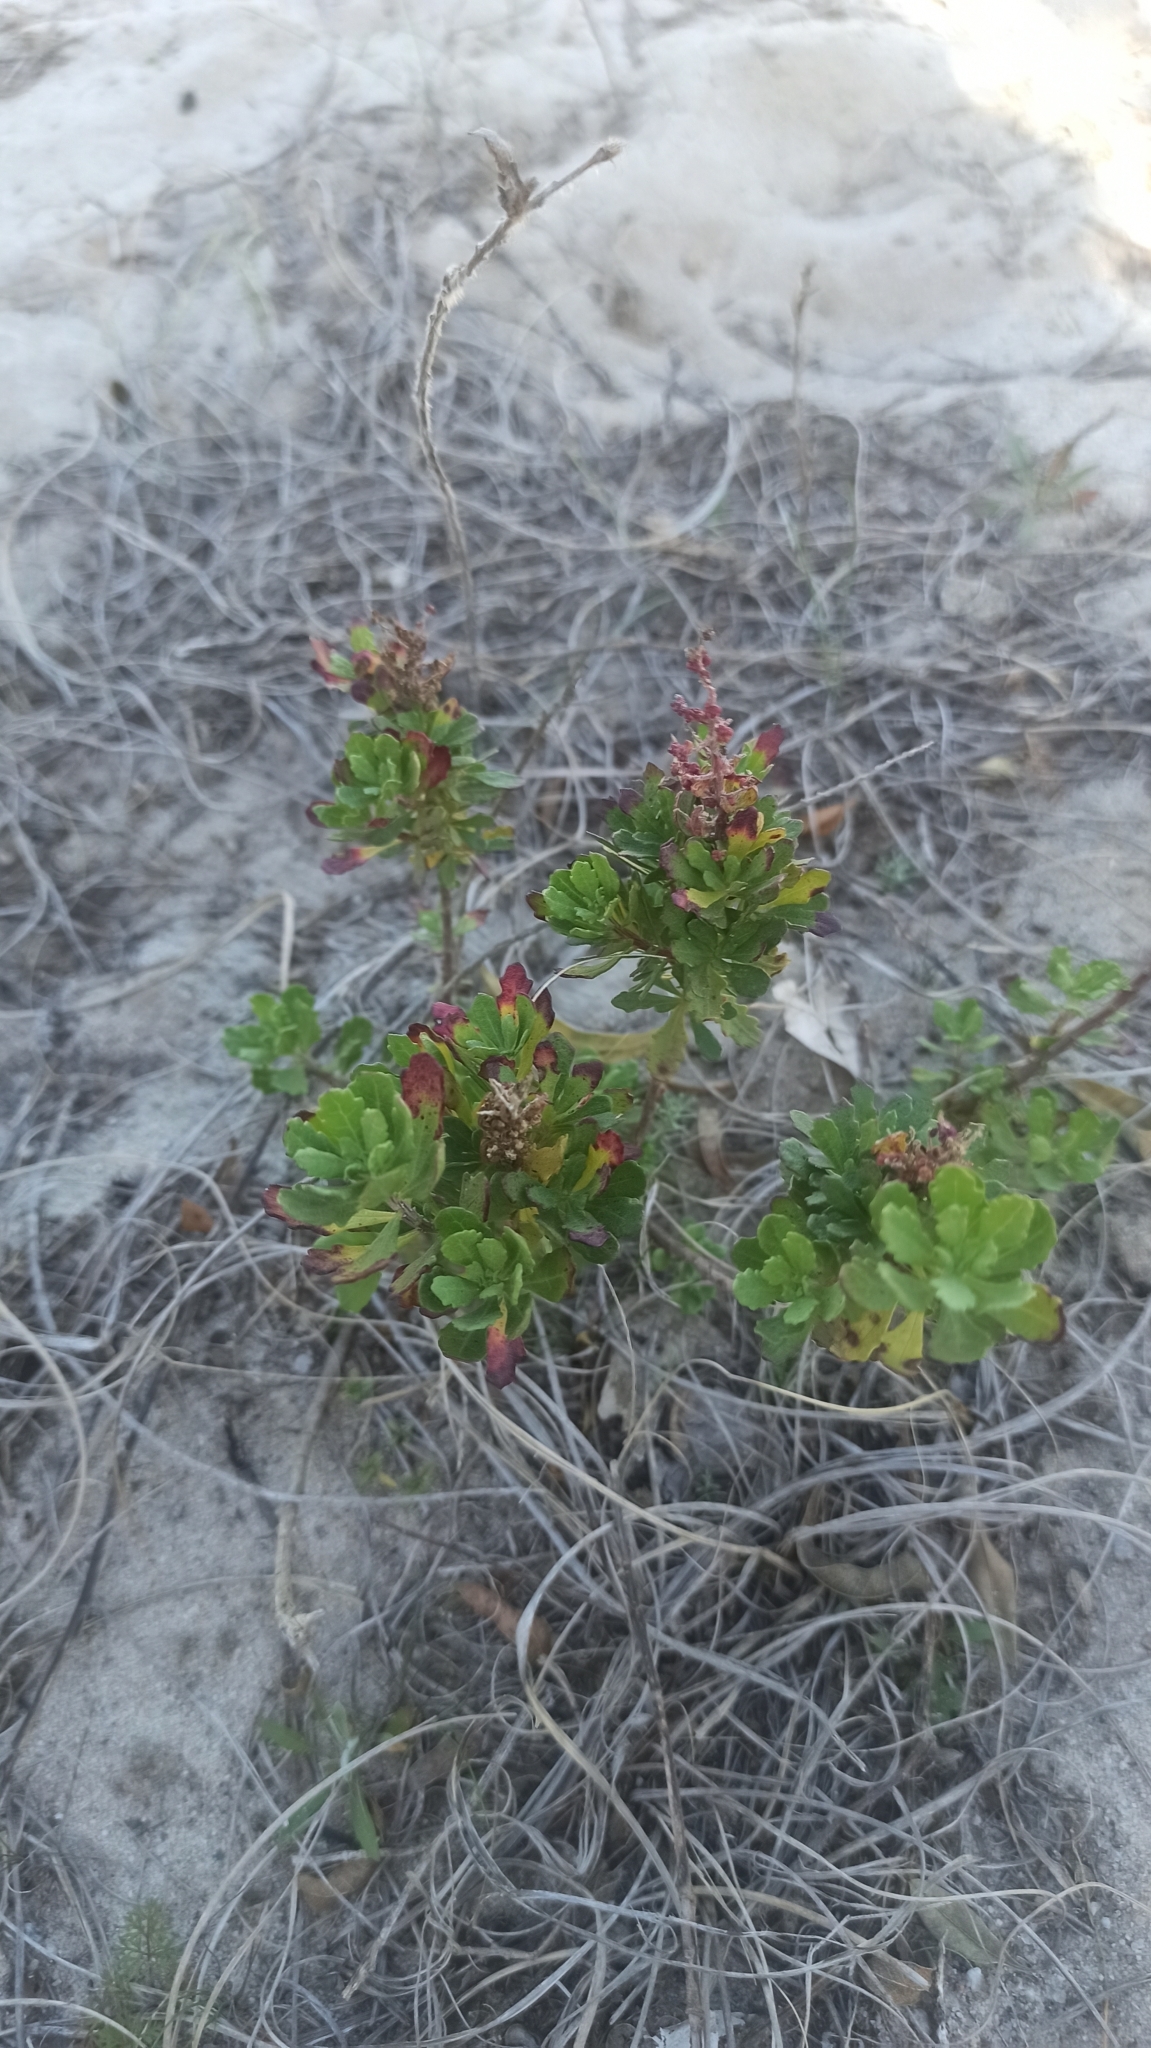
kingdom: Plantae
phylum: Tracheophyta
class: Magnoliopsida
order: Caryophyllales
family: Amaranthaceae
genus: Dysphania
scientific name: Dysphania retusa
